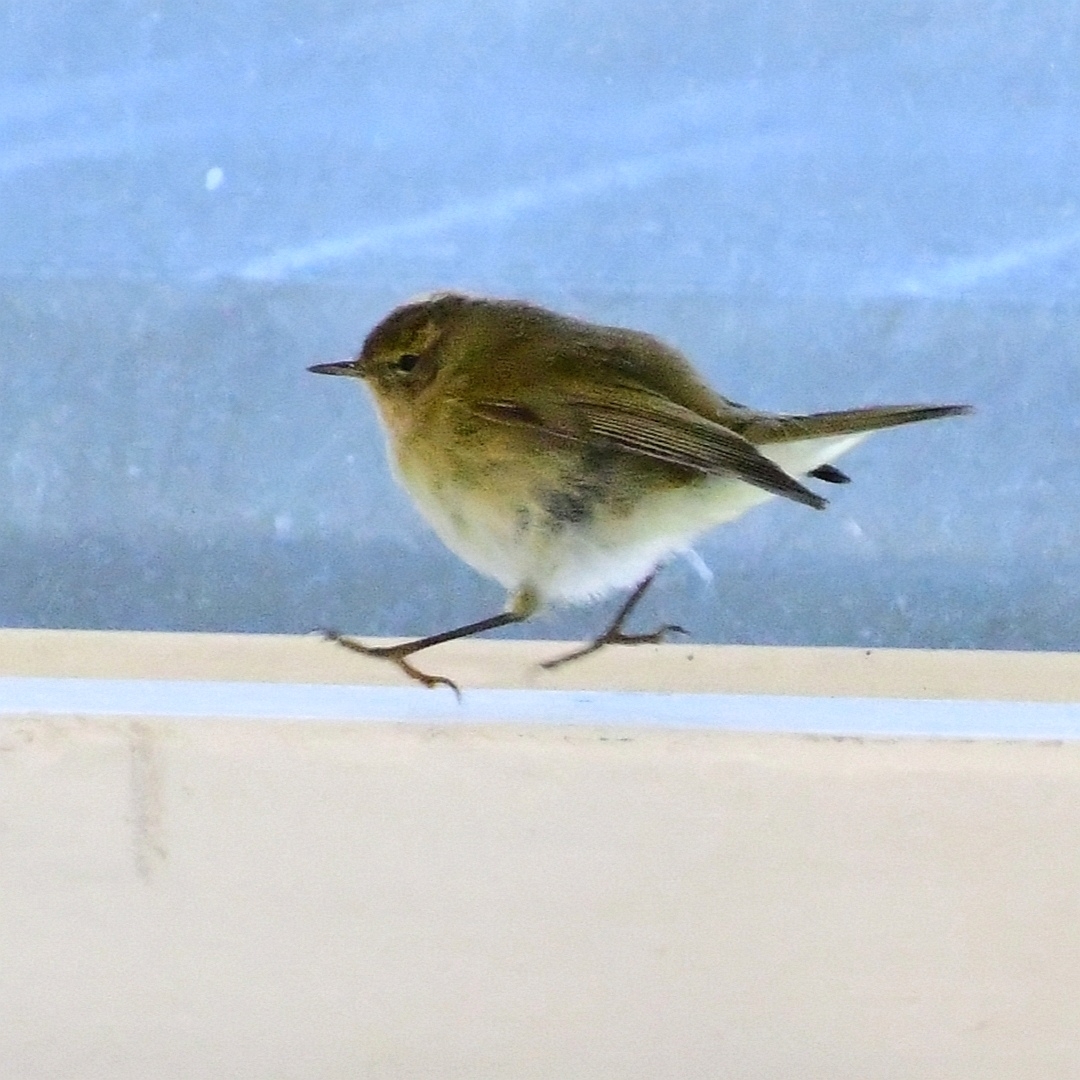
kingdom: Animalia
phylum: Chordata
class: Aves
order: Passeriformes
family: Phylloscopidae
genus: Phylloscopus
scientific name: Phylloscopus collybita
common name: Common chiffchaff
